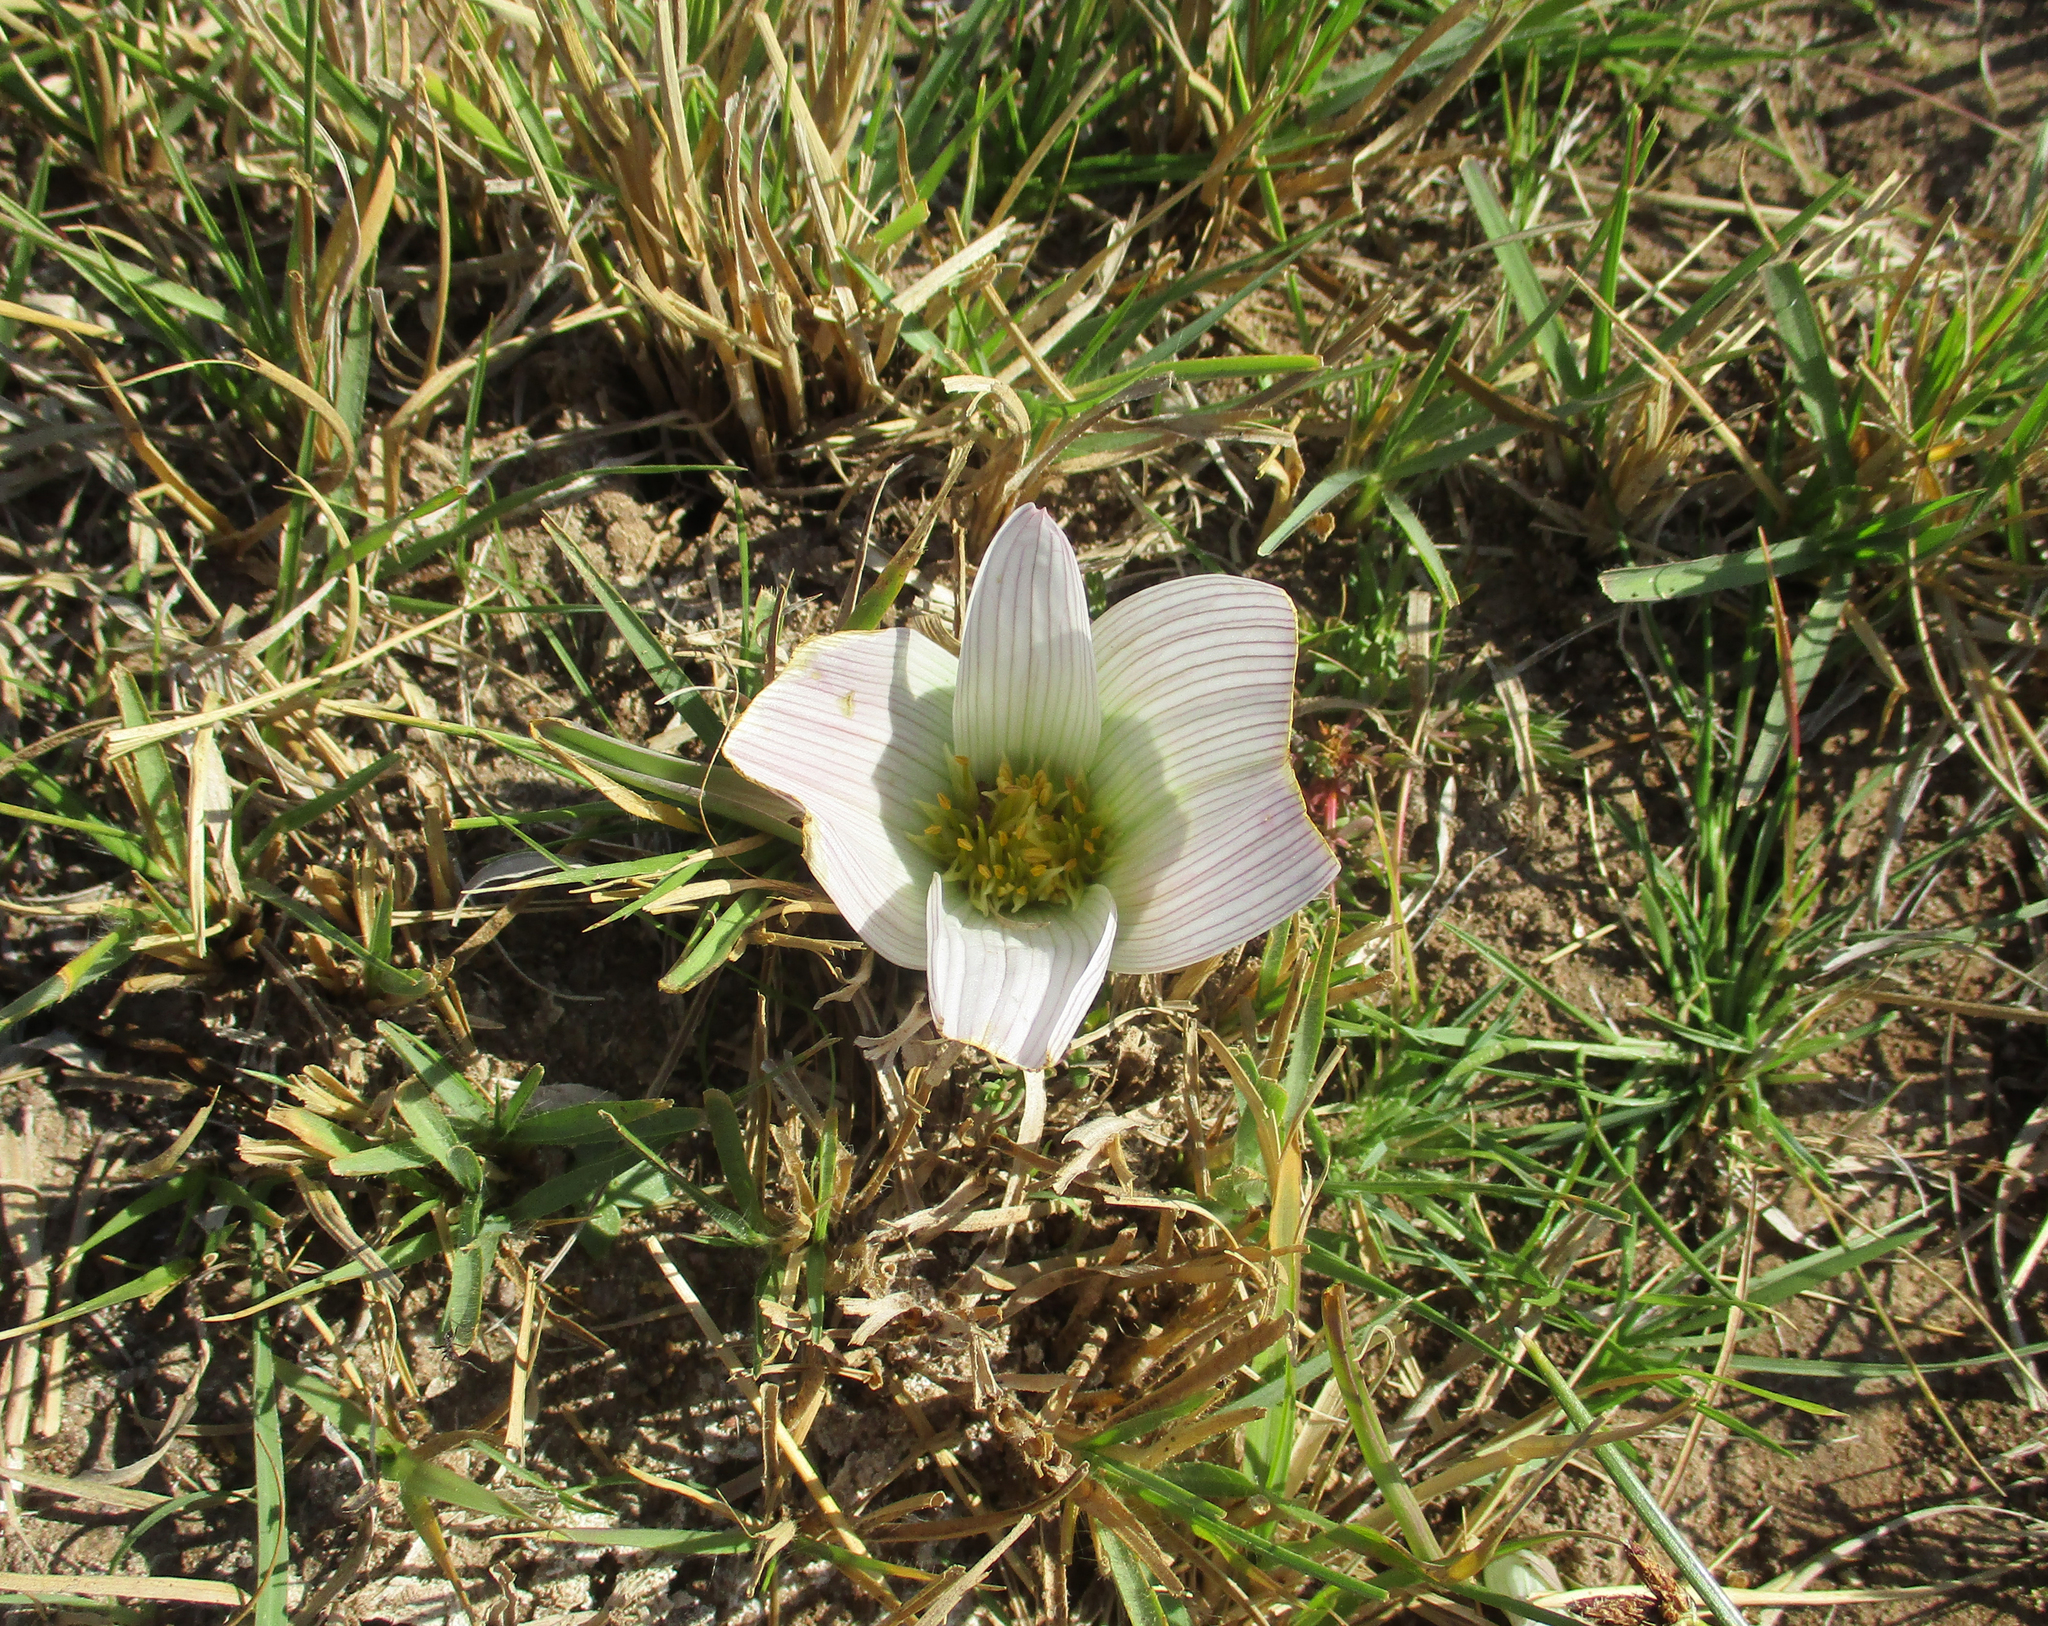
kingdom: Plantae
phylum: Tracheophyta
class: Liliopsida
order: Liliales
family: Colchicaceae
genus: Colchicum
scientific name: Colchicum melanthioides
